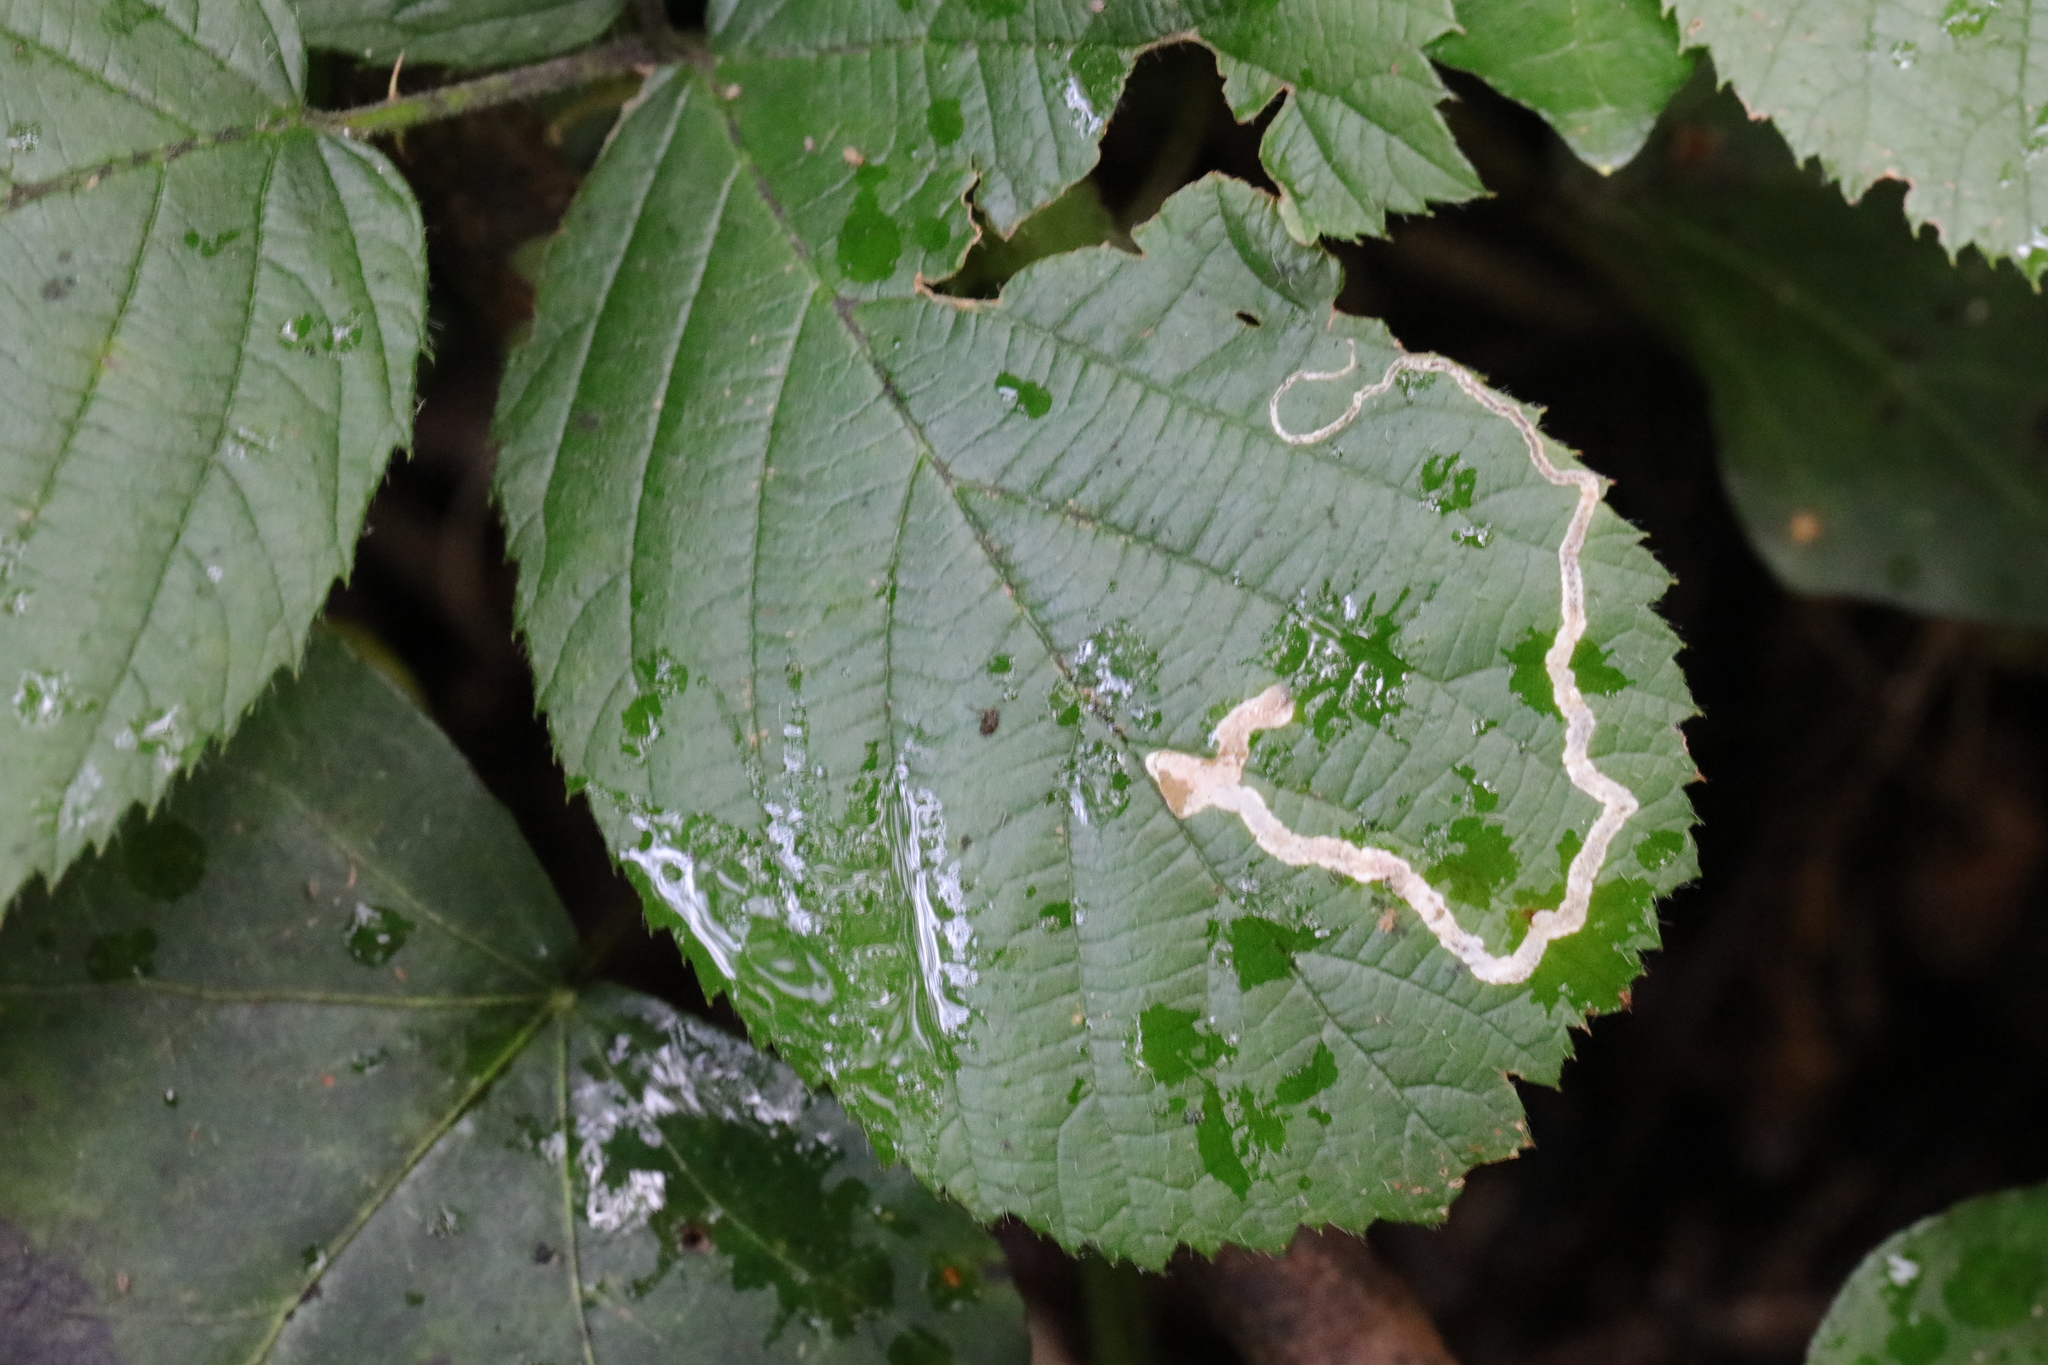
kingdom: Animalia
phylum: Arthropoda
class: Insecta
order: Lepidoptera
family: Nepticulidae
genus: Stigmella
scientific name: Stigmella aurella
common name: Golden pigmy
